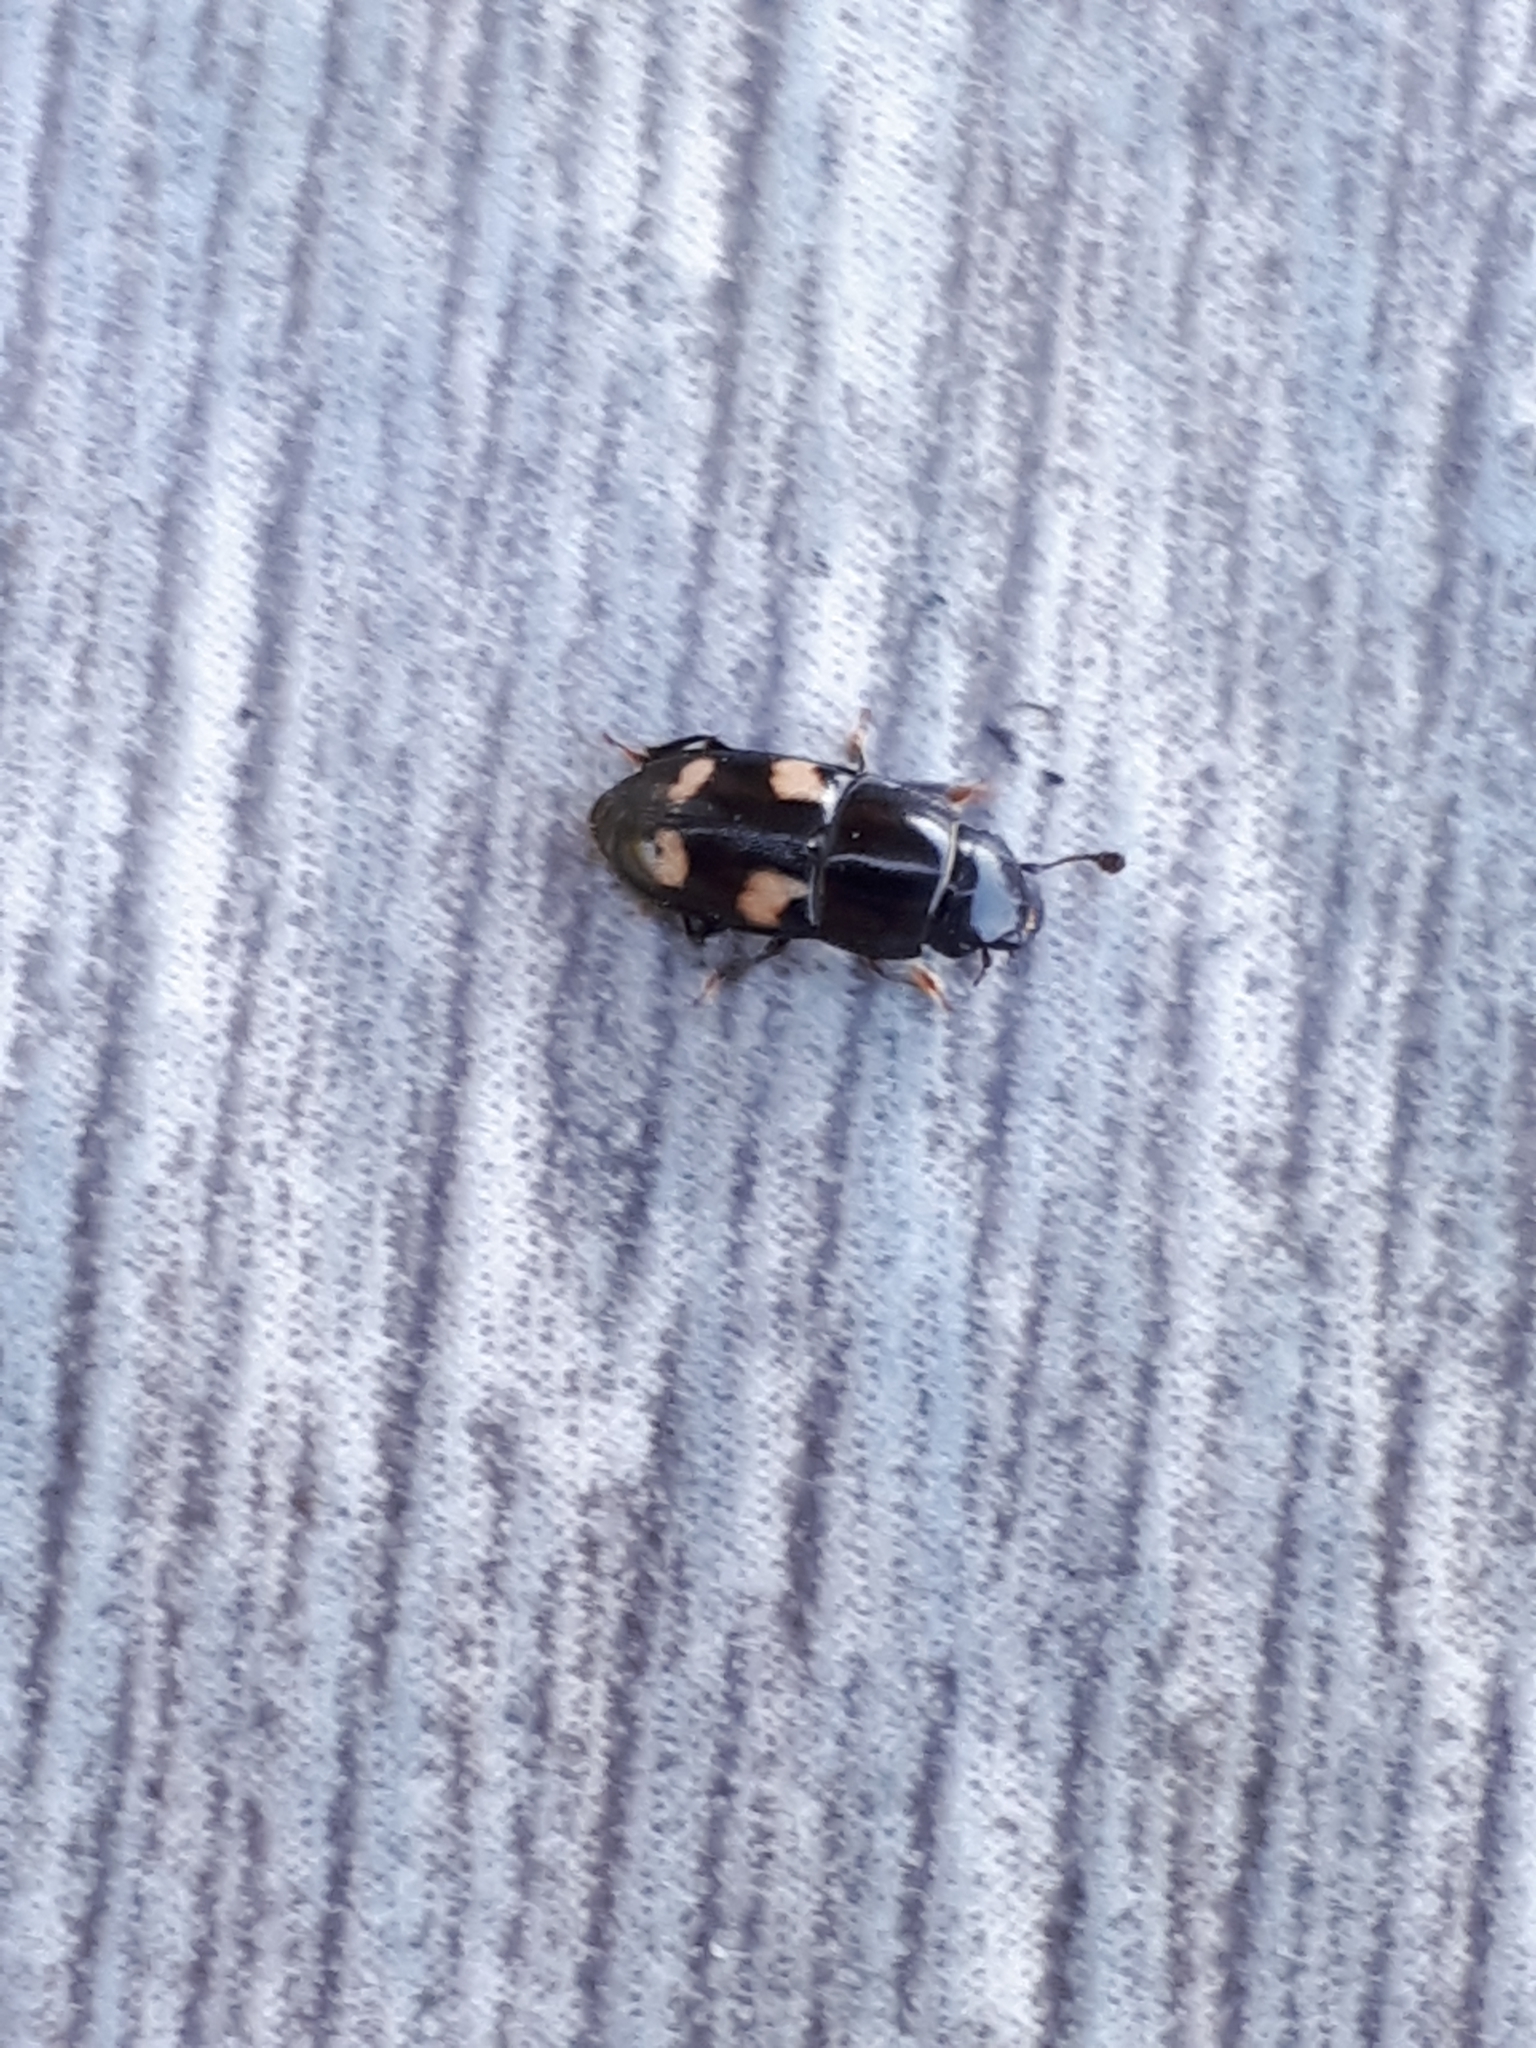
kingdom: Animalia
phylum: Arthropoda
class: Insecta
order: Coleoptera
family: Nitidulidae
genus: Glischrochilus
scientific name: Glischrochilus quadrisignatus
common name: Picnic beetle
